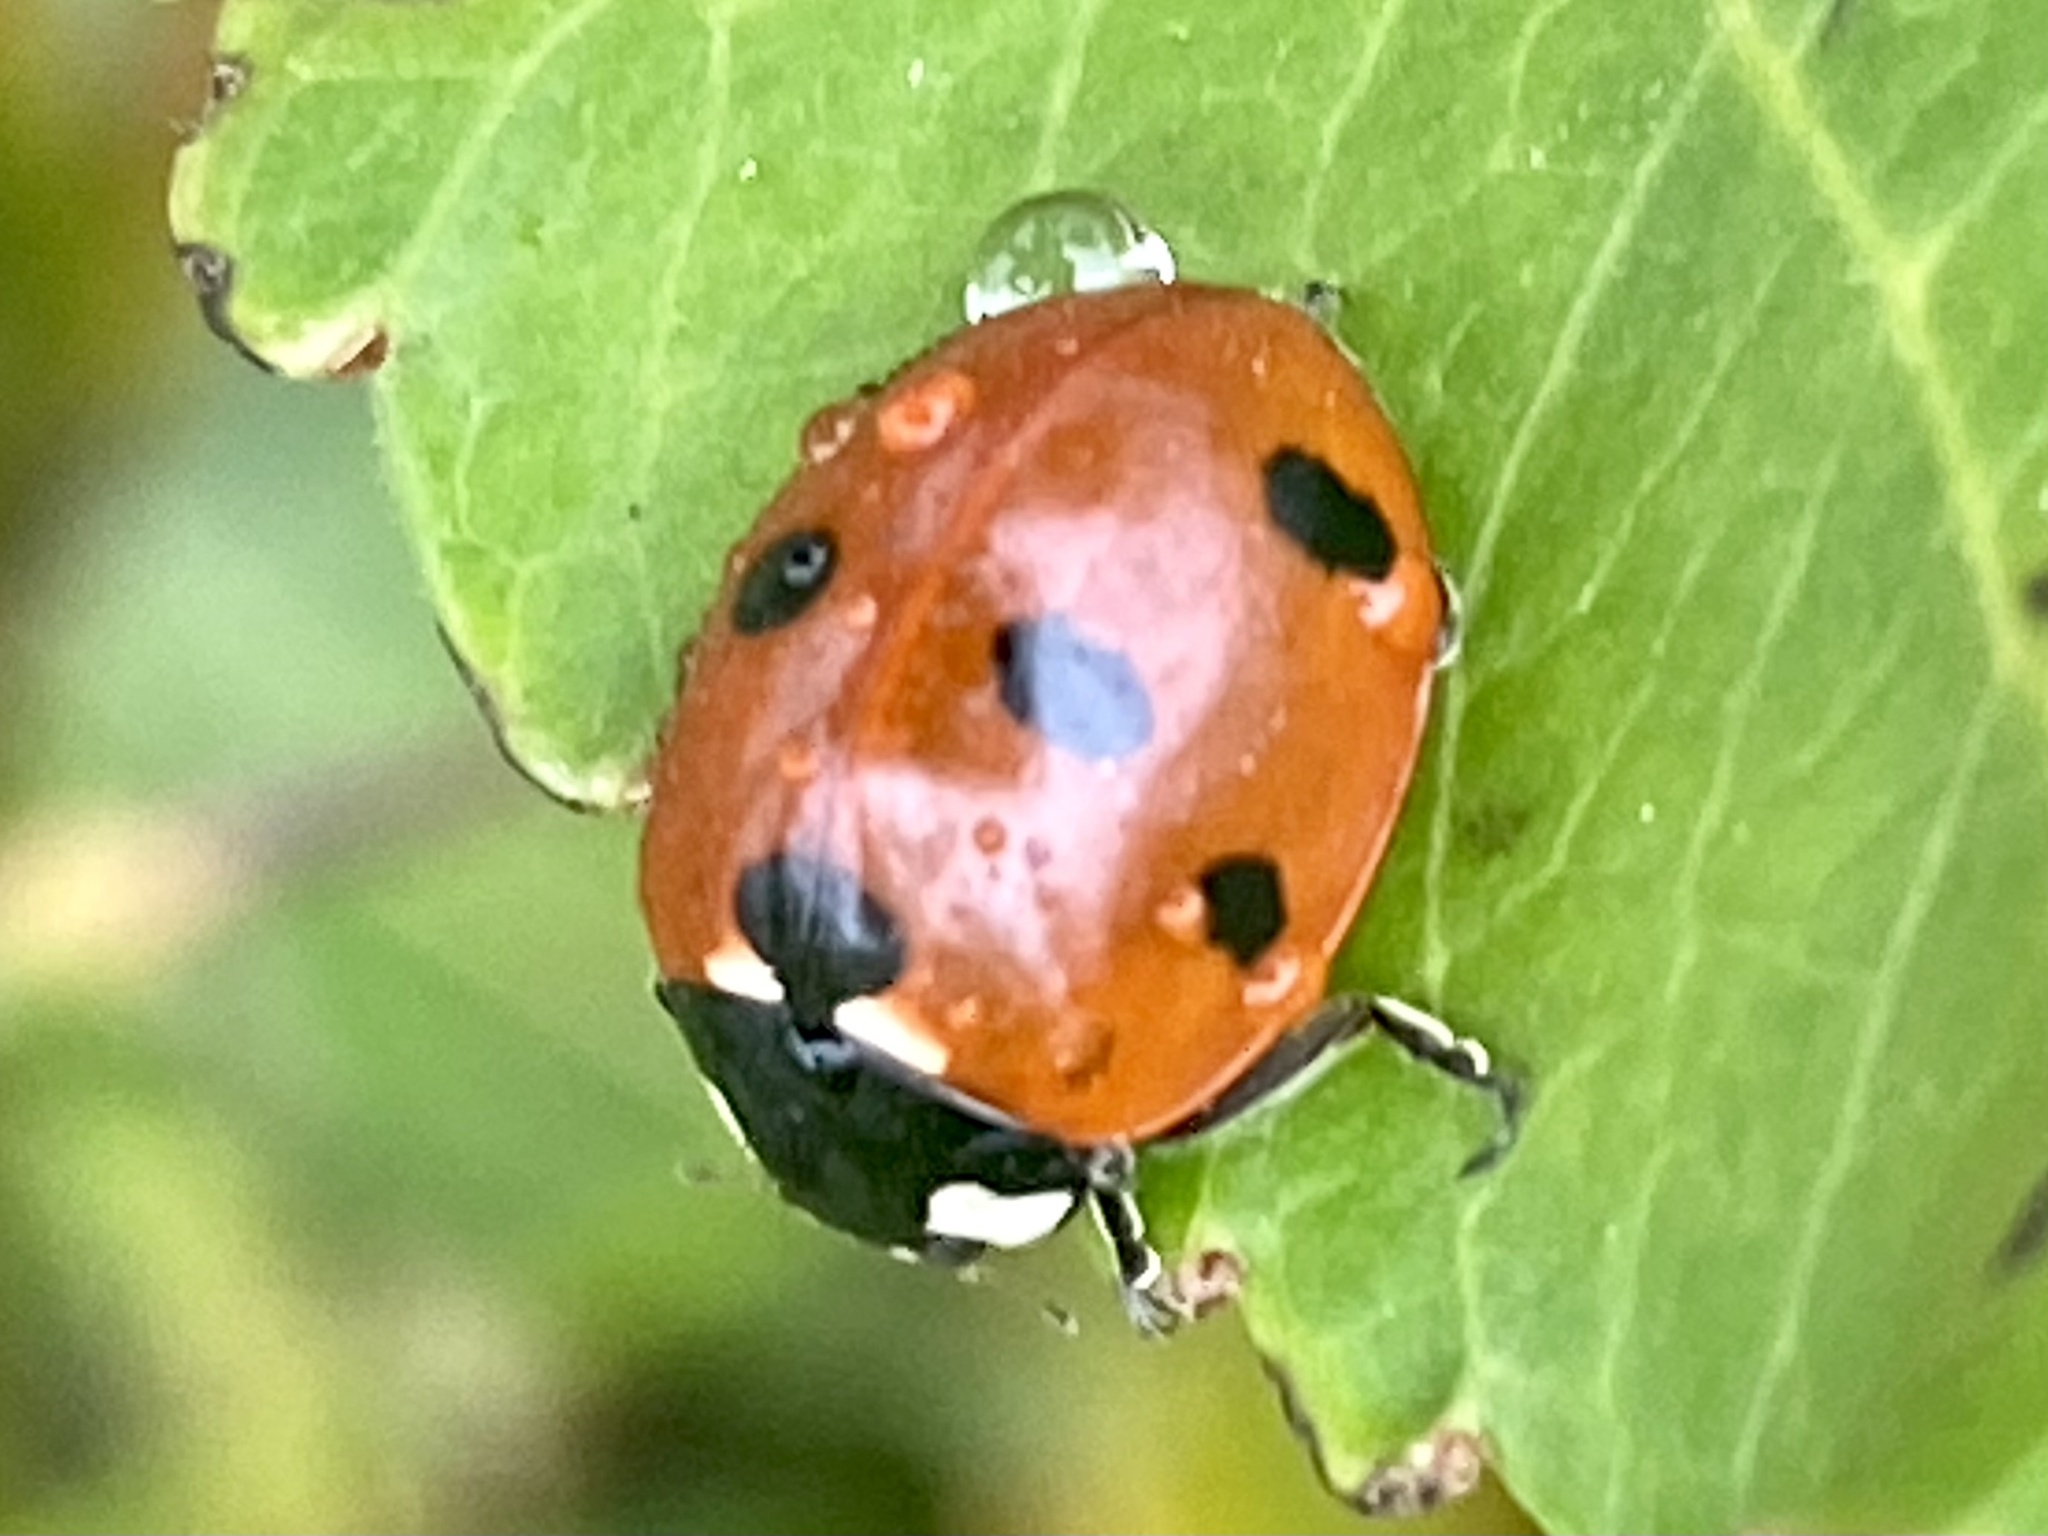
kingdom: Animalia
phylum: Arthropoda
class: Insecta
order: Coleoptera
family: Coccinellidae
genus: Coccinella
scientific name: Coccinella septempunctata
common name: Sevenspotted lady beetle
